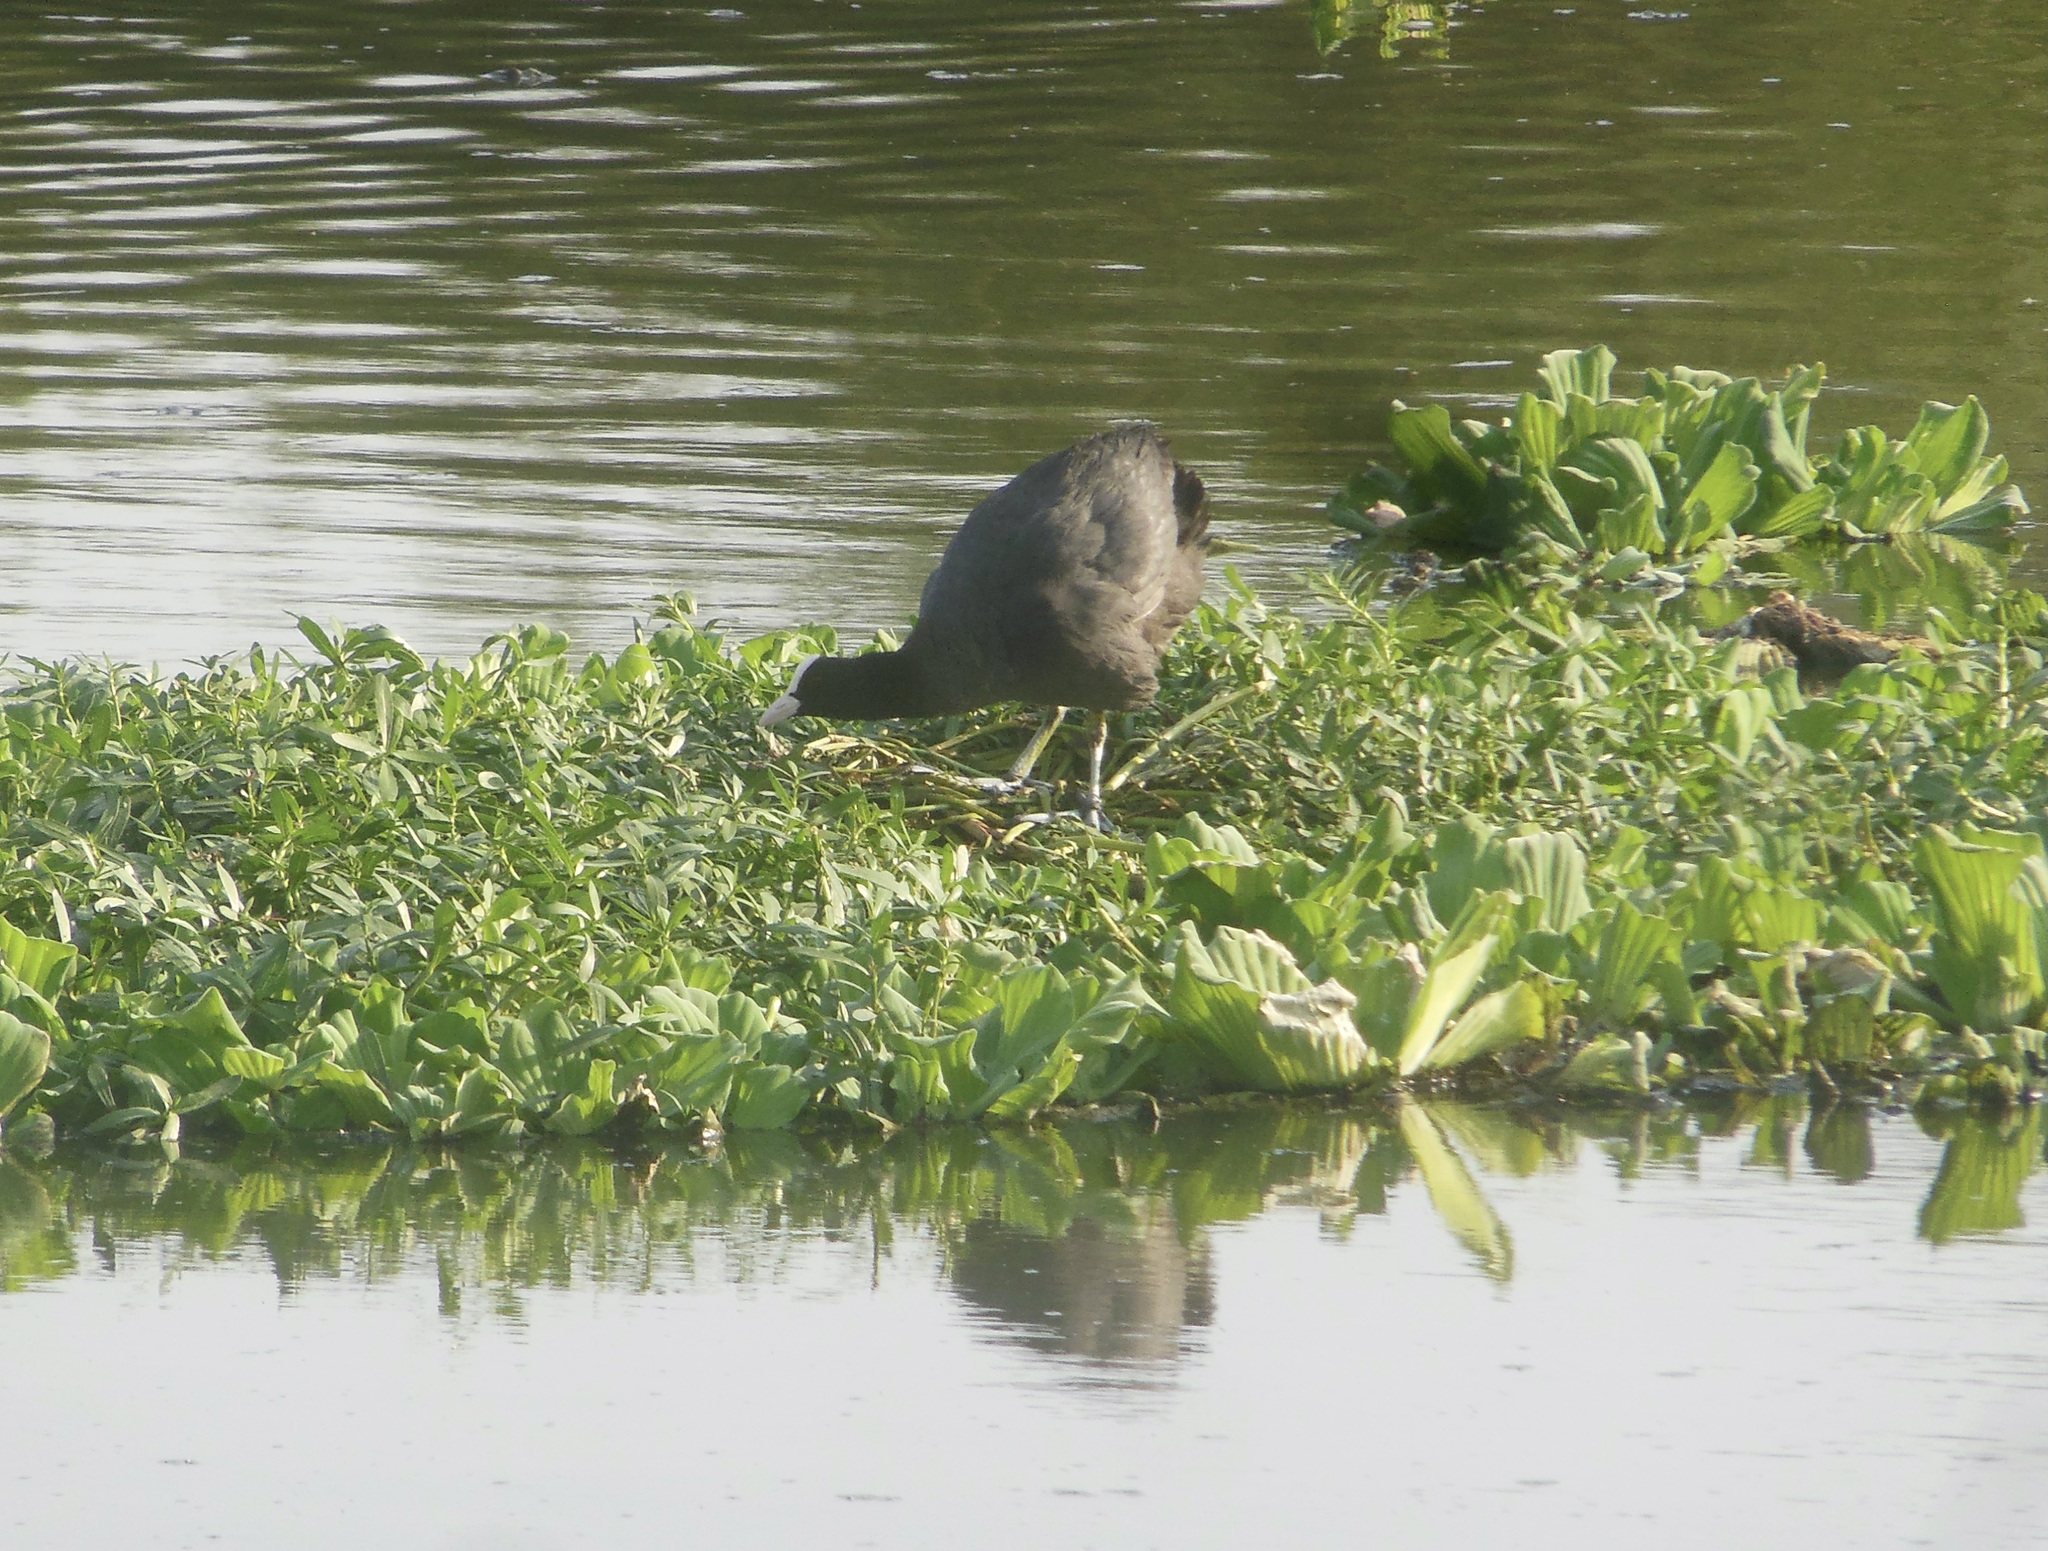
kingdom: Animalia
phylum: Chordata
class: Aves
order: Gruiformes
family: Rallidae
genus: Fulica
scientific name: Fulica atra
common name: Eurasian coot
